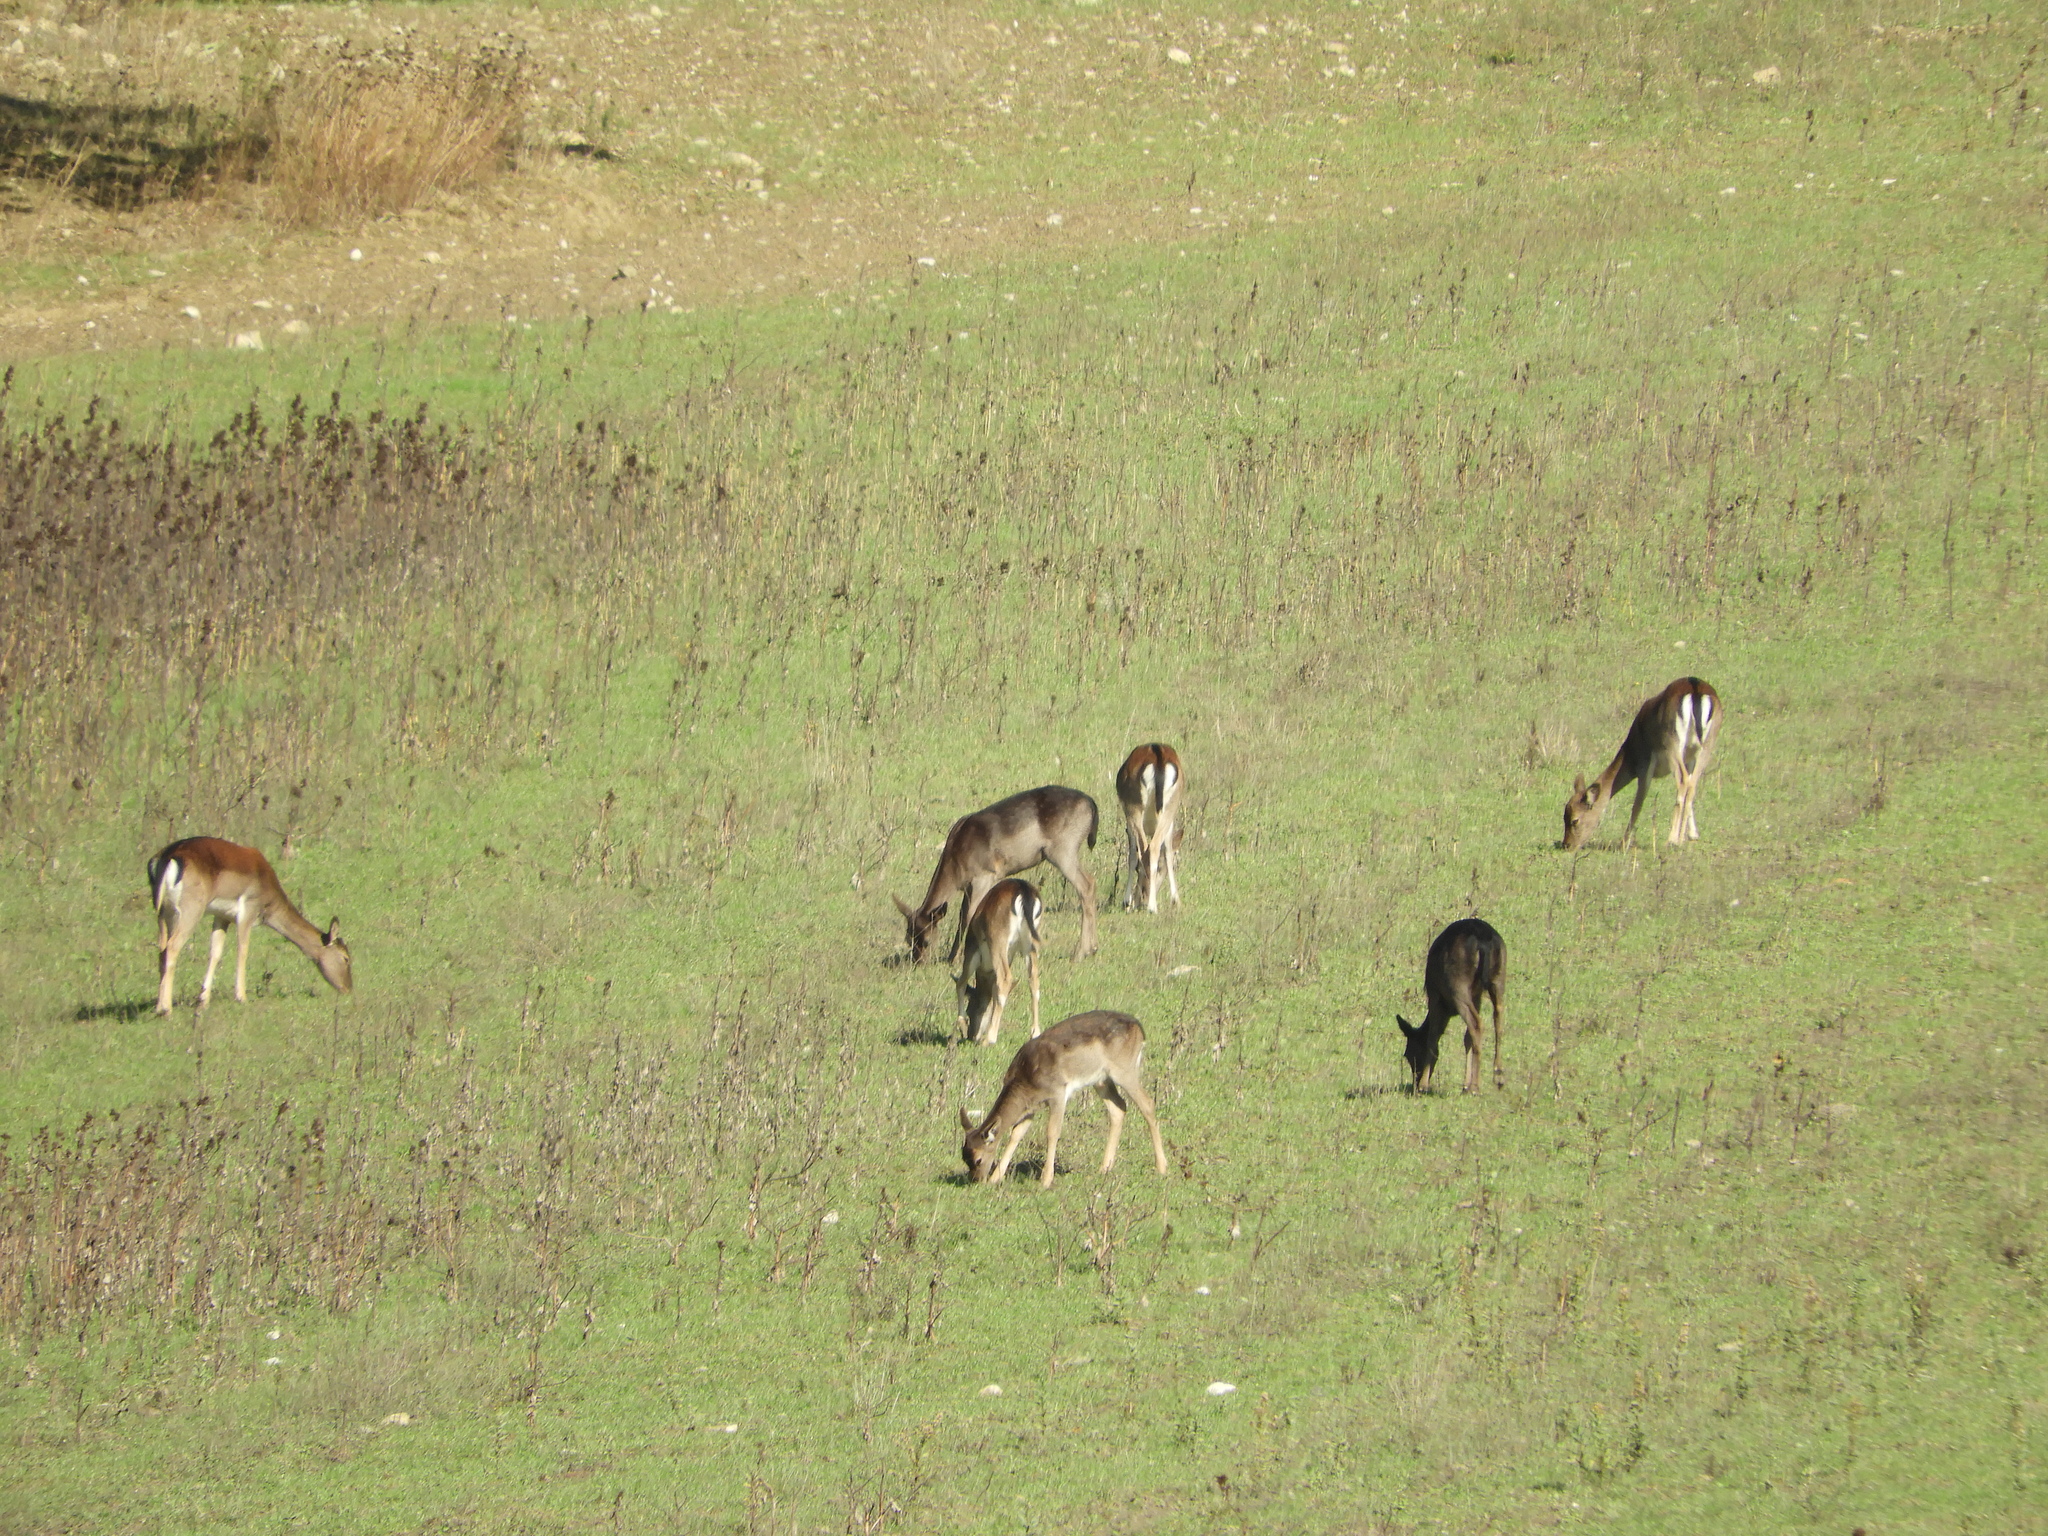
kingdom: Animalia
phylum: Chordata
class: Mammalia
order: Artiodactyla
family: Cervidae
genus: Dama
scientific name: Dama dama
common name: Fallow deer
